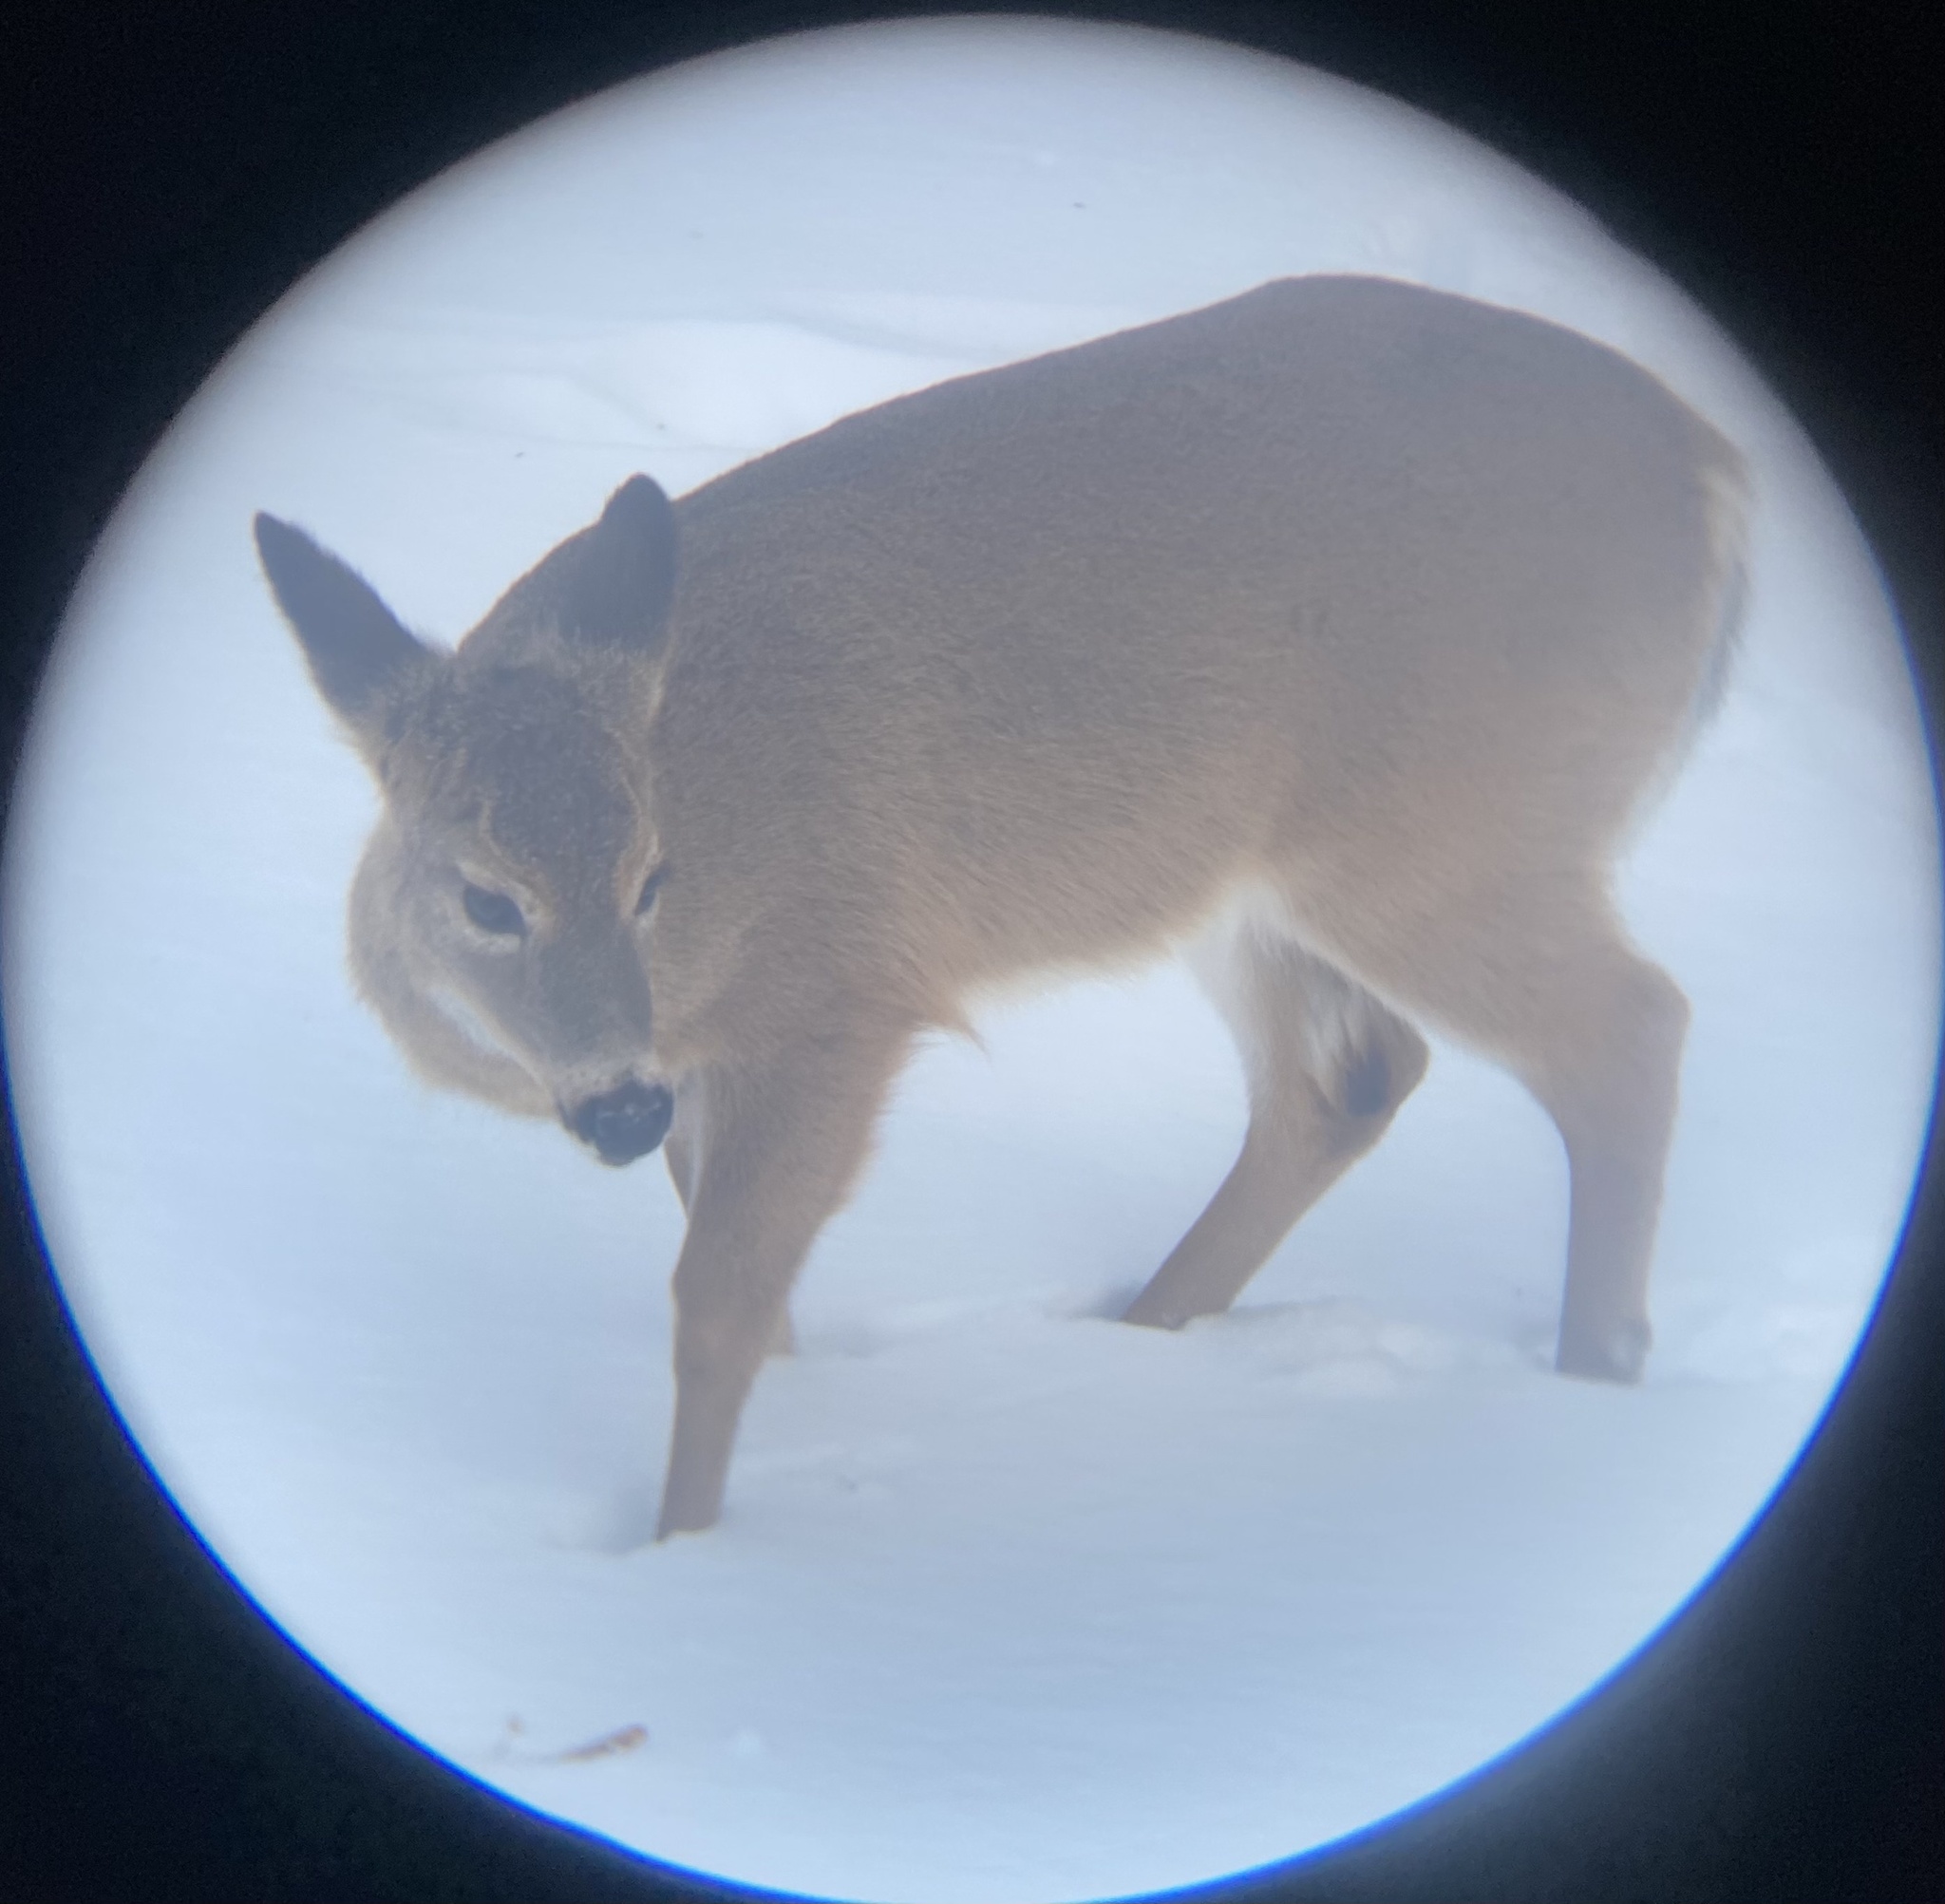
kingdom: Animalia
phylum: Chordata
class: Mammalia
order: Artiodactyla
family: Cervidae
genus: Odocoileus
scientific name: Odocoileus virginianus
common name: White-tailed deer
